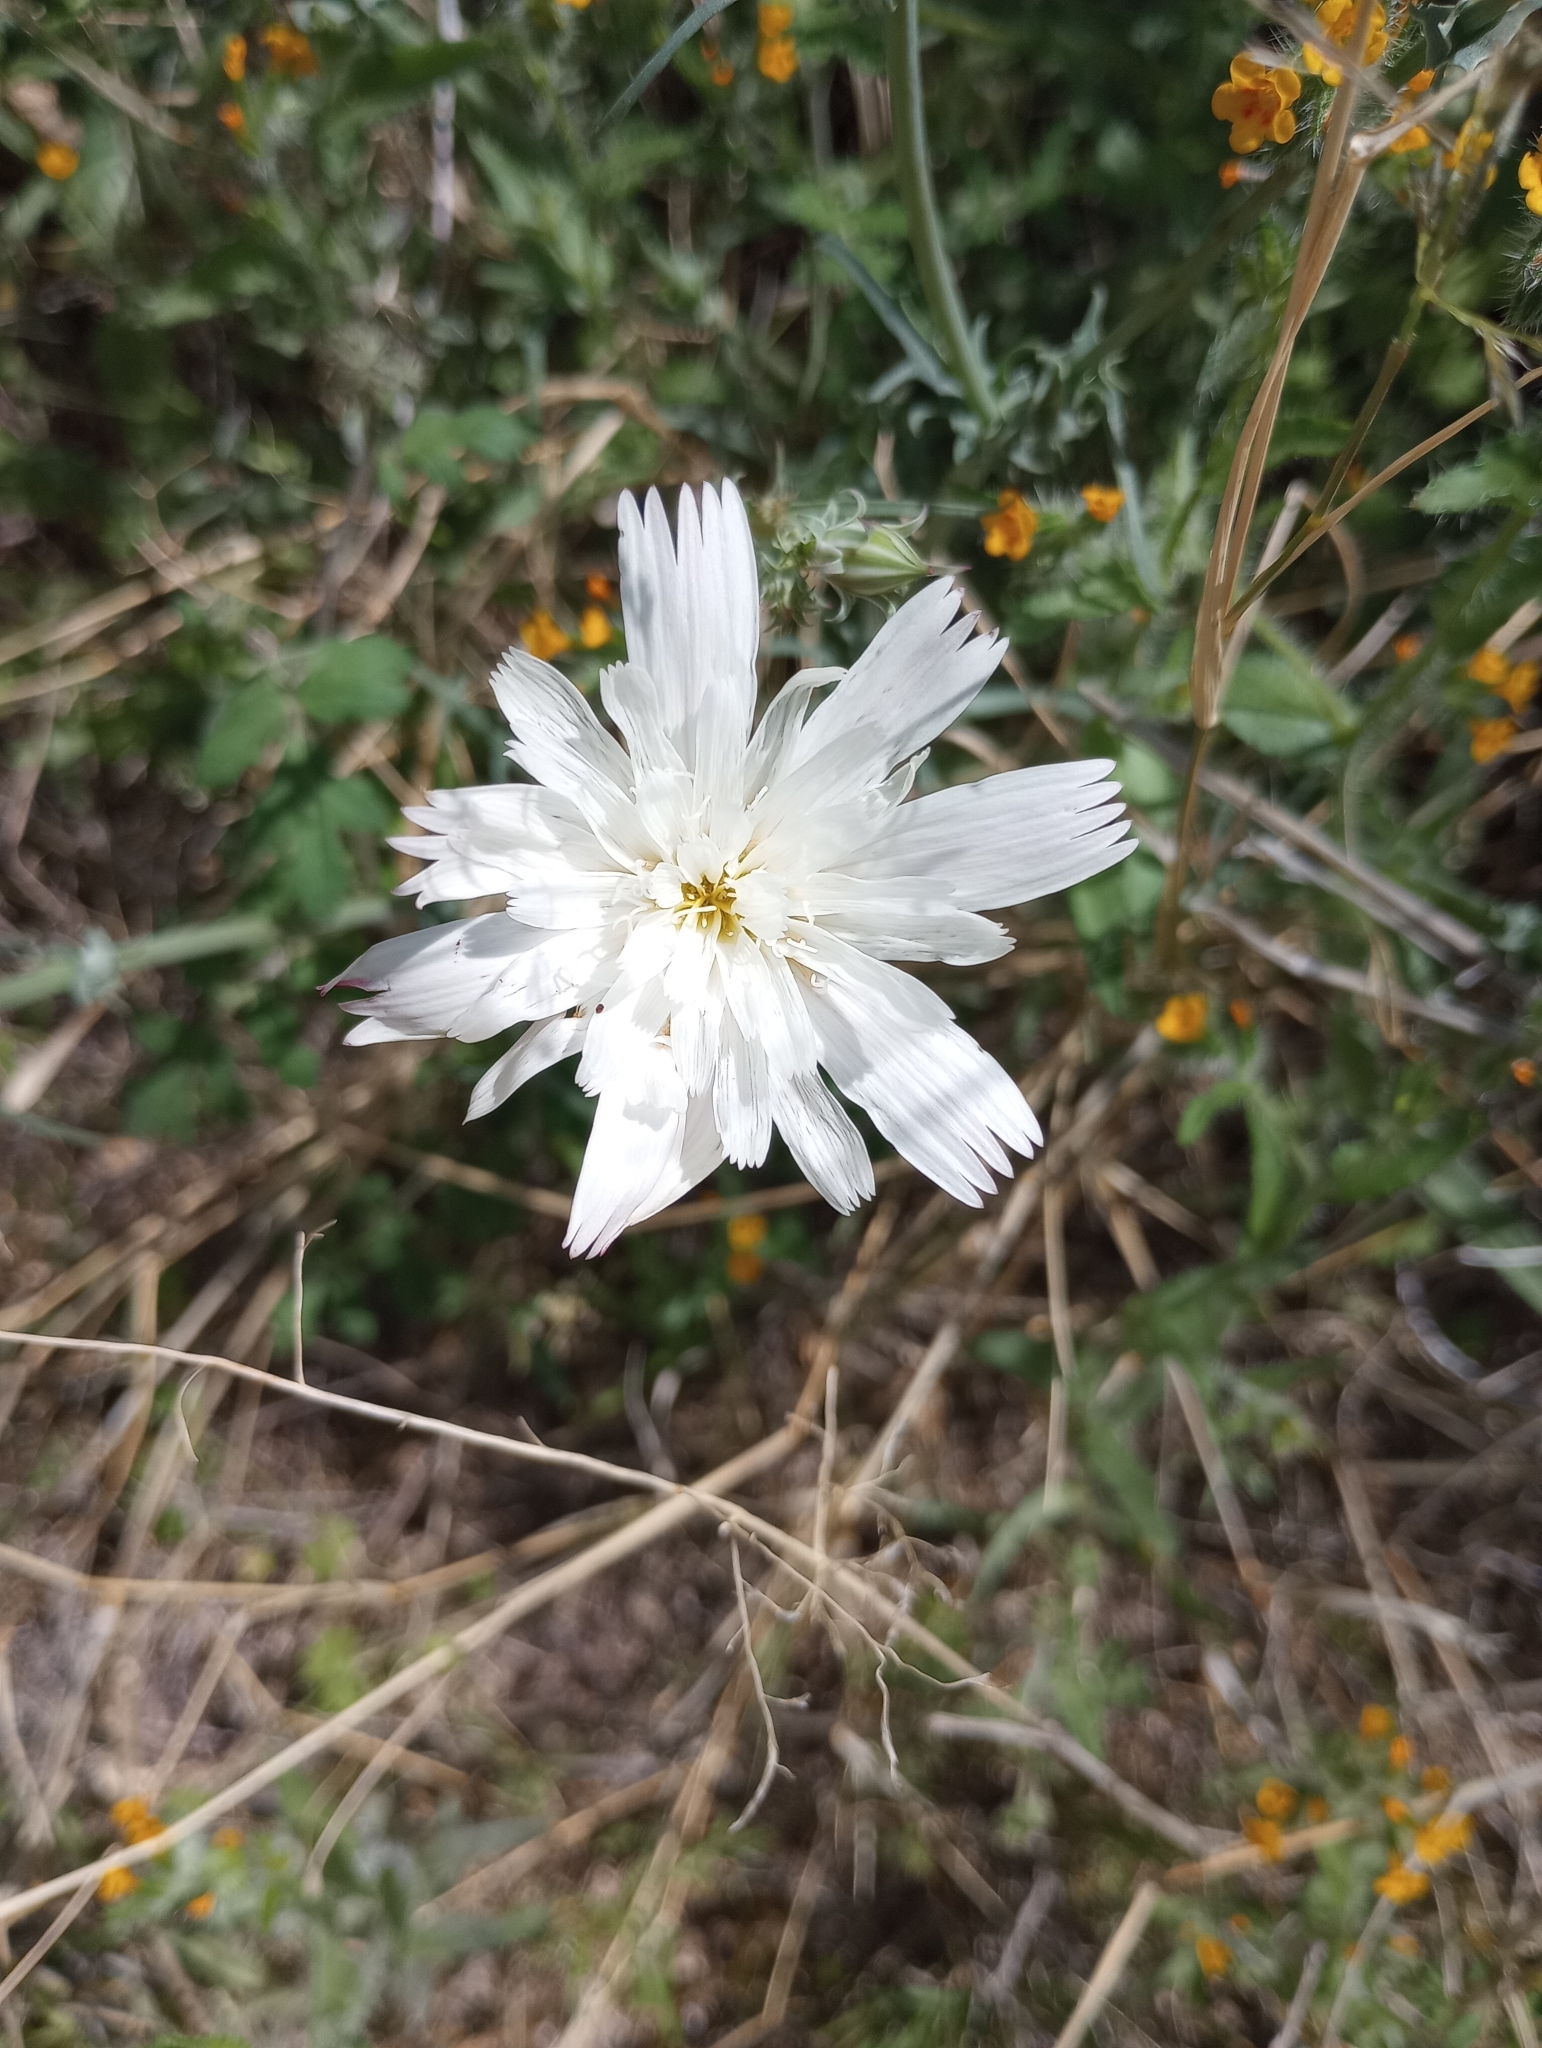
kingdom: Plantae
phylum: Tracheophyta
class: Magnoliopsida
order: Asterales
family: Asteraceae
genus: Rafinesquia
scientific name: Rafinesquia neomexicana
